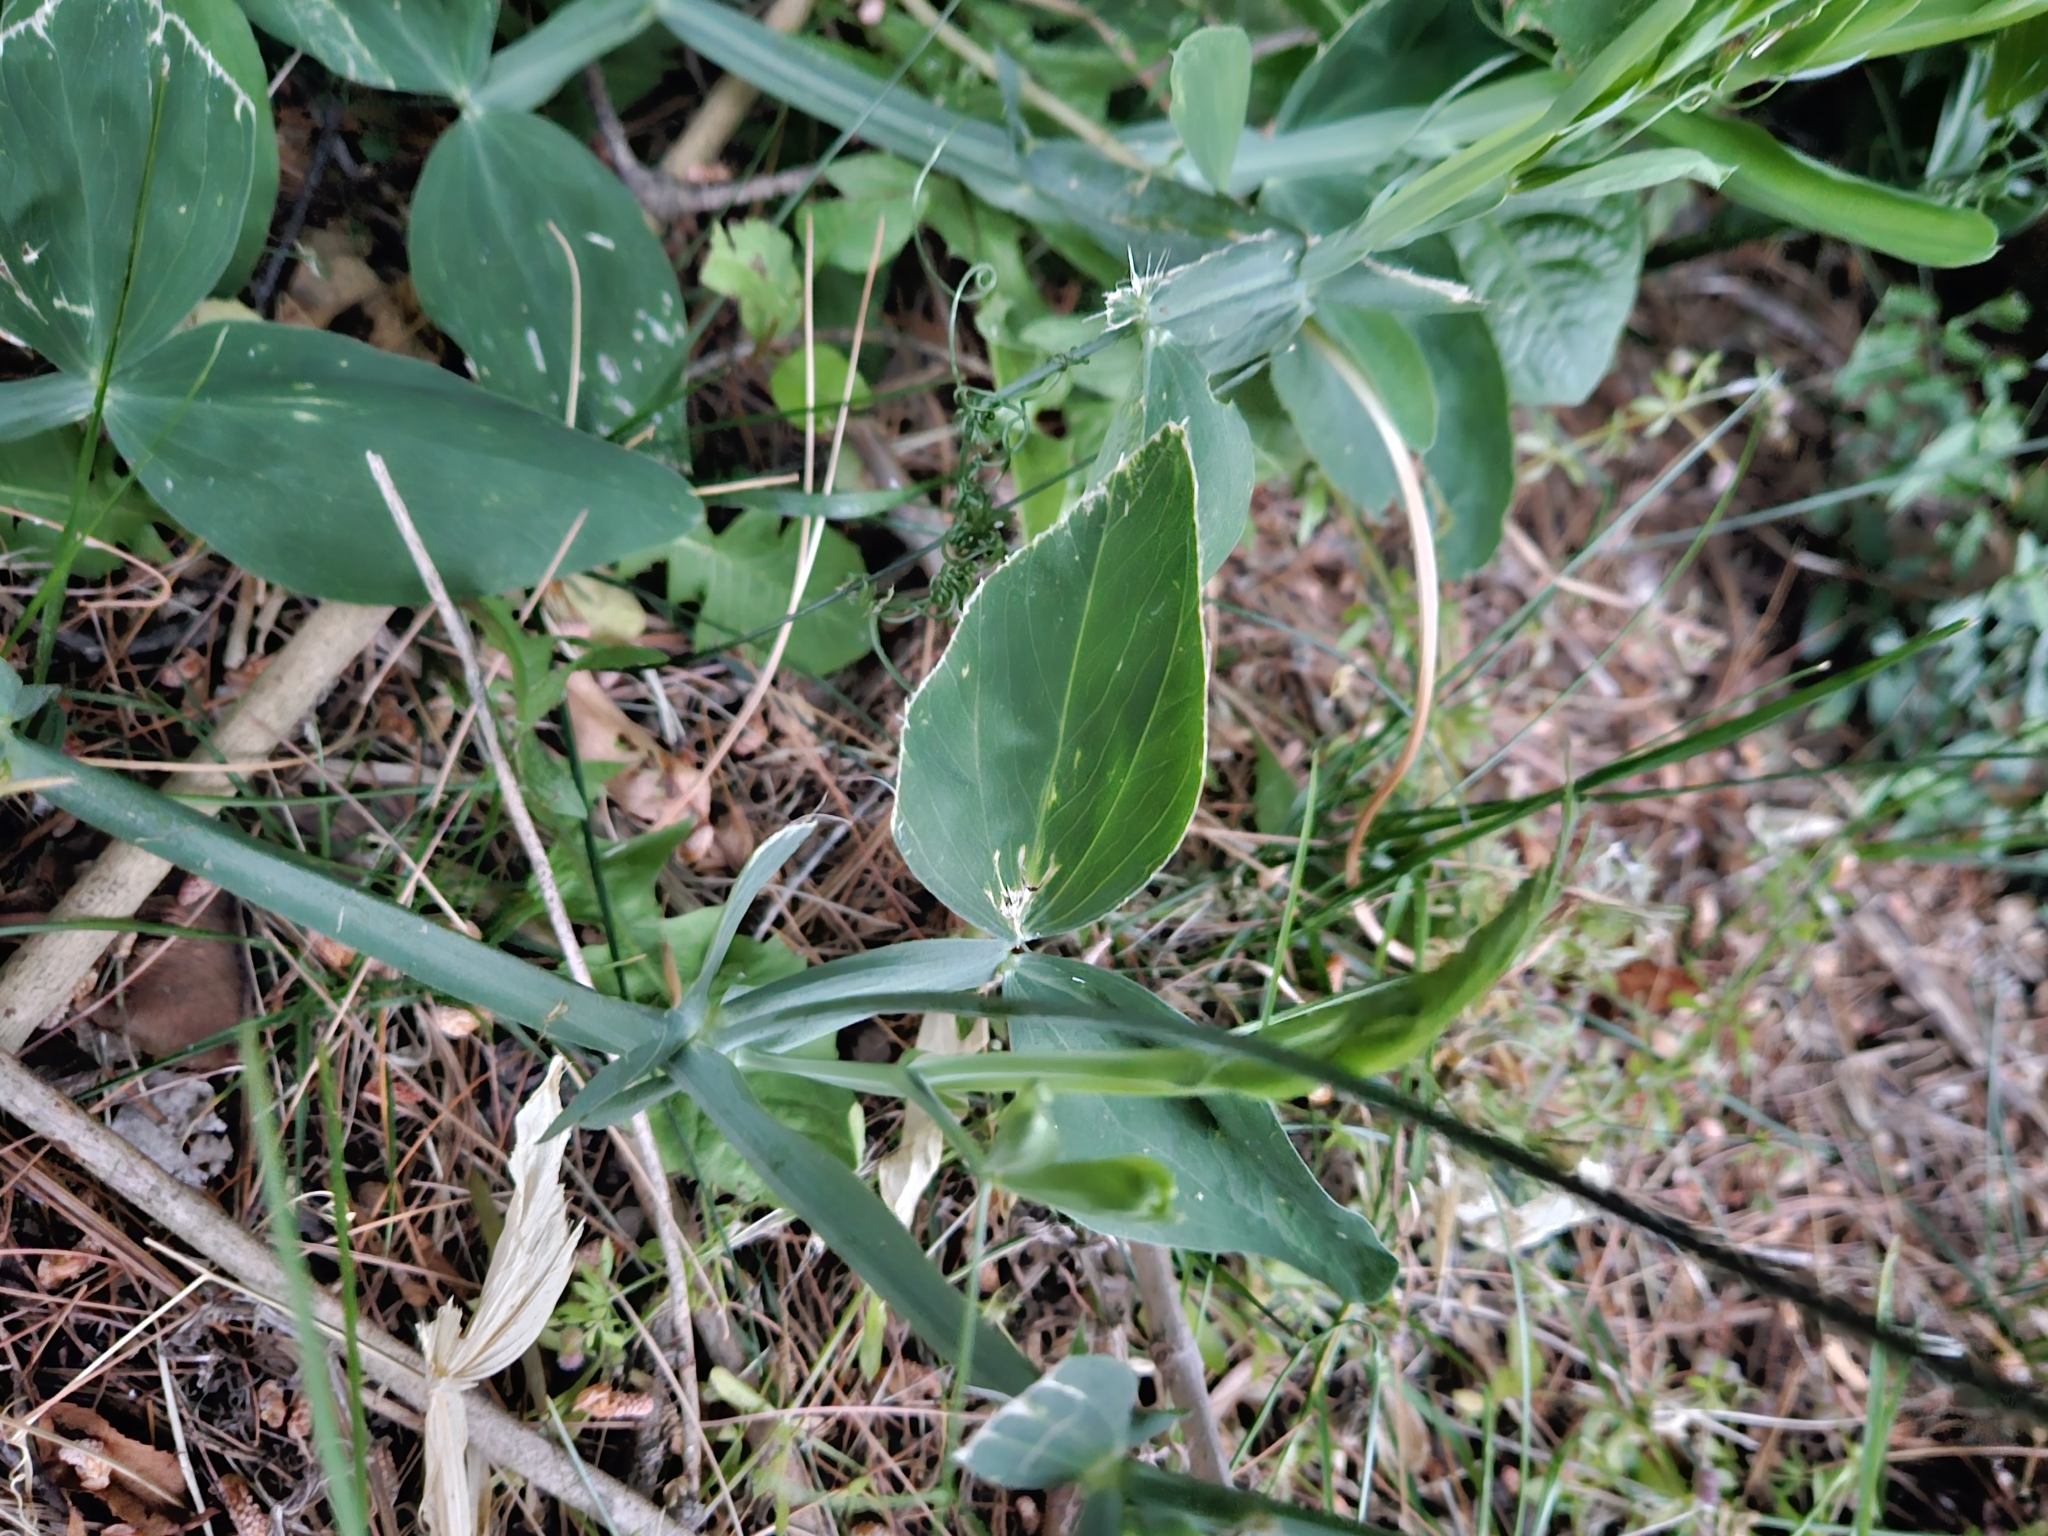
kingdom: Plantae
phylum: Tracheophyta
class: Magnoliopsida
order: Fabales
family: Fabaceae
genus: Lathyrus
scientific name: Lathyrus latifolius
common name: Perennial pea
